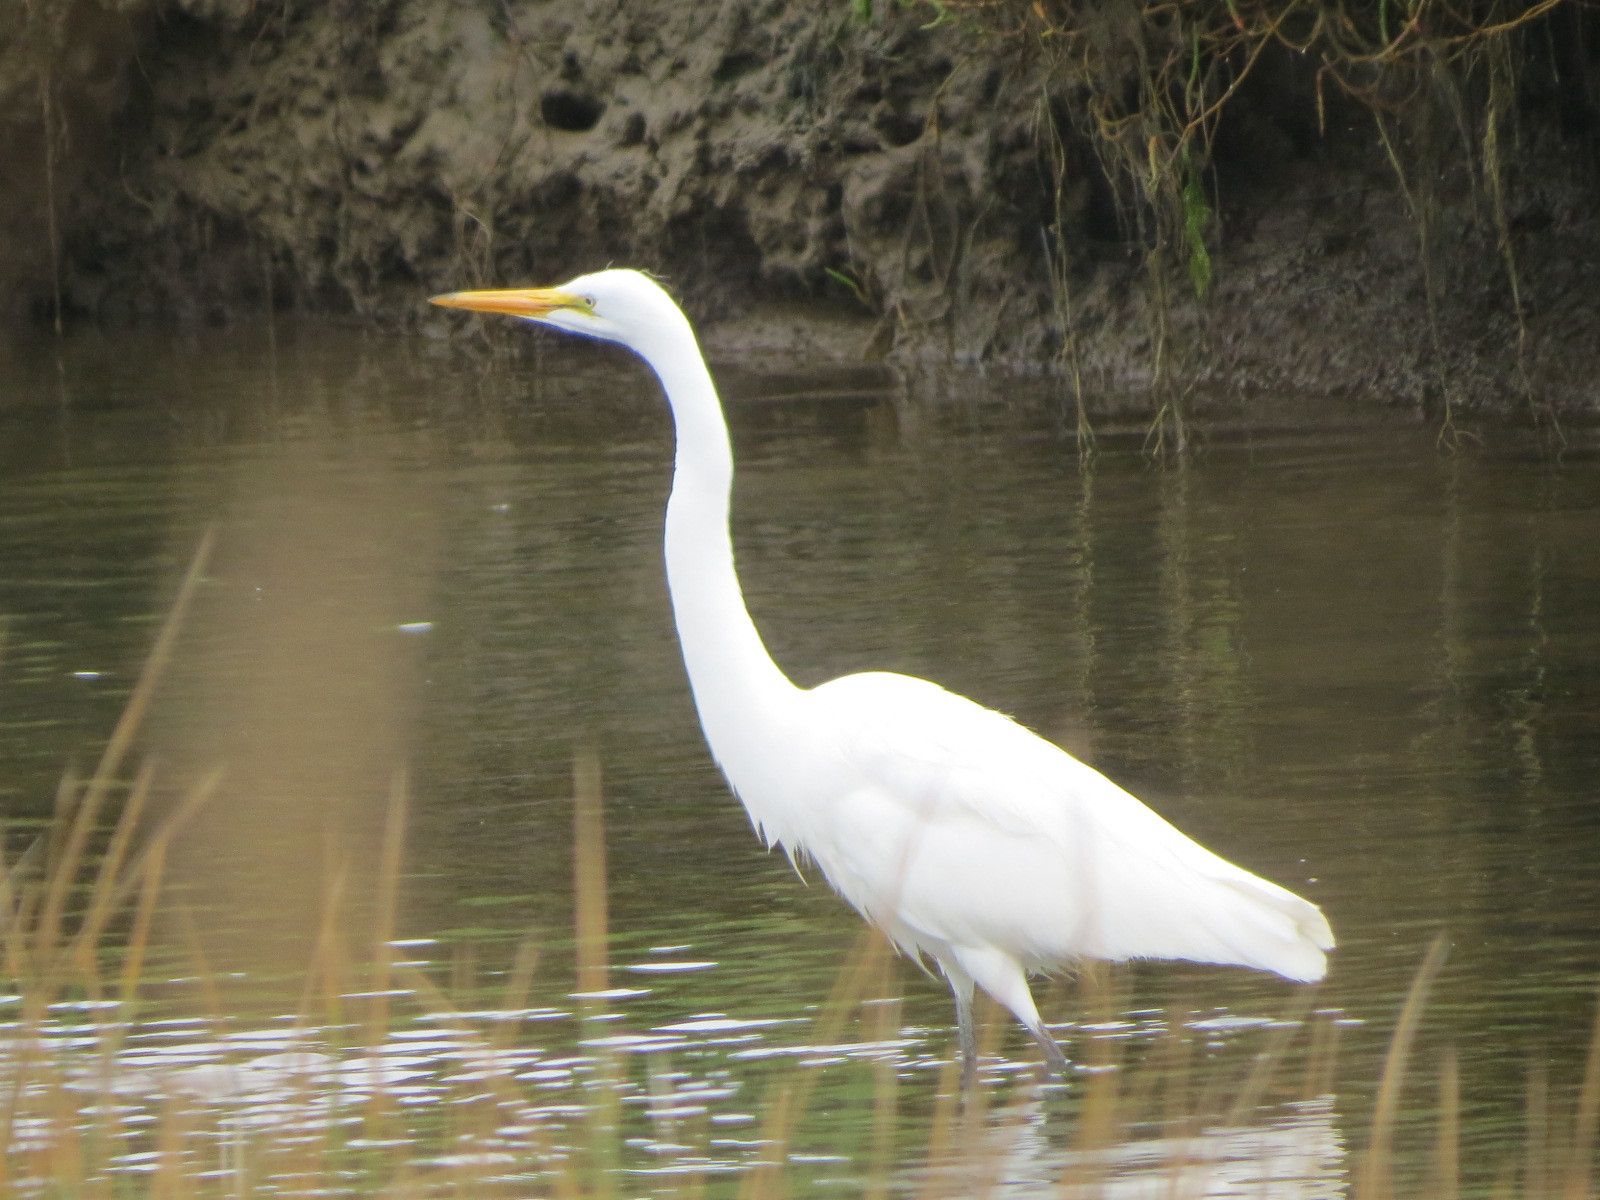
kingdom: Animalia
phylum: Chordata
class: Aves
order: Pelecaniformes
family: Ardeidae
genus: Ardea
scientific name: Ardea alba
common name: Great egret
